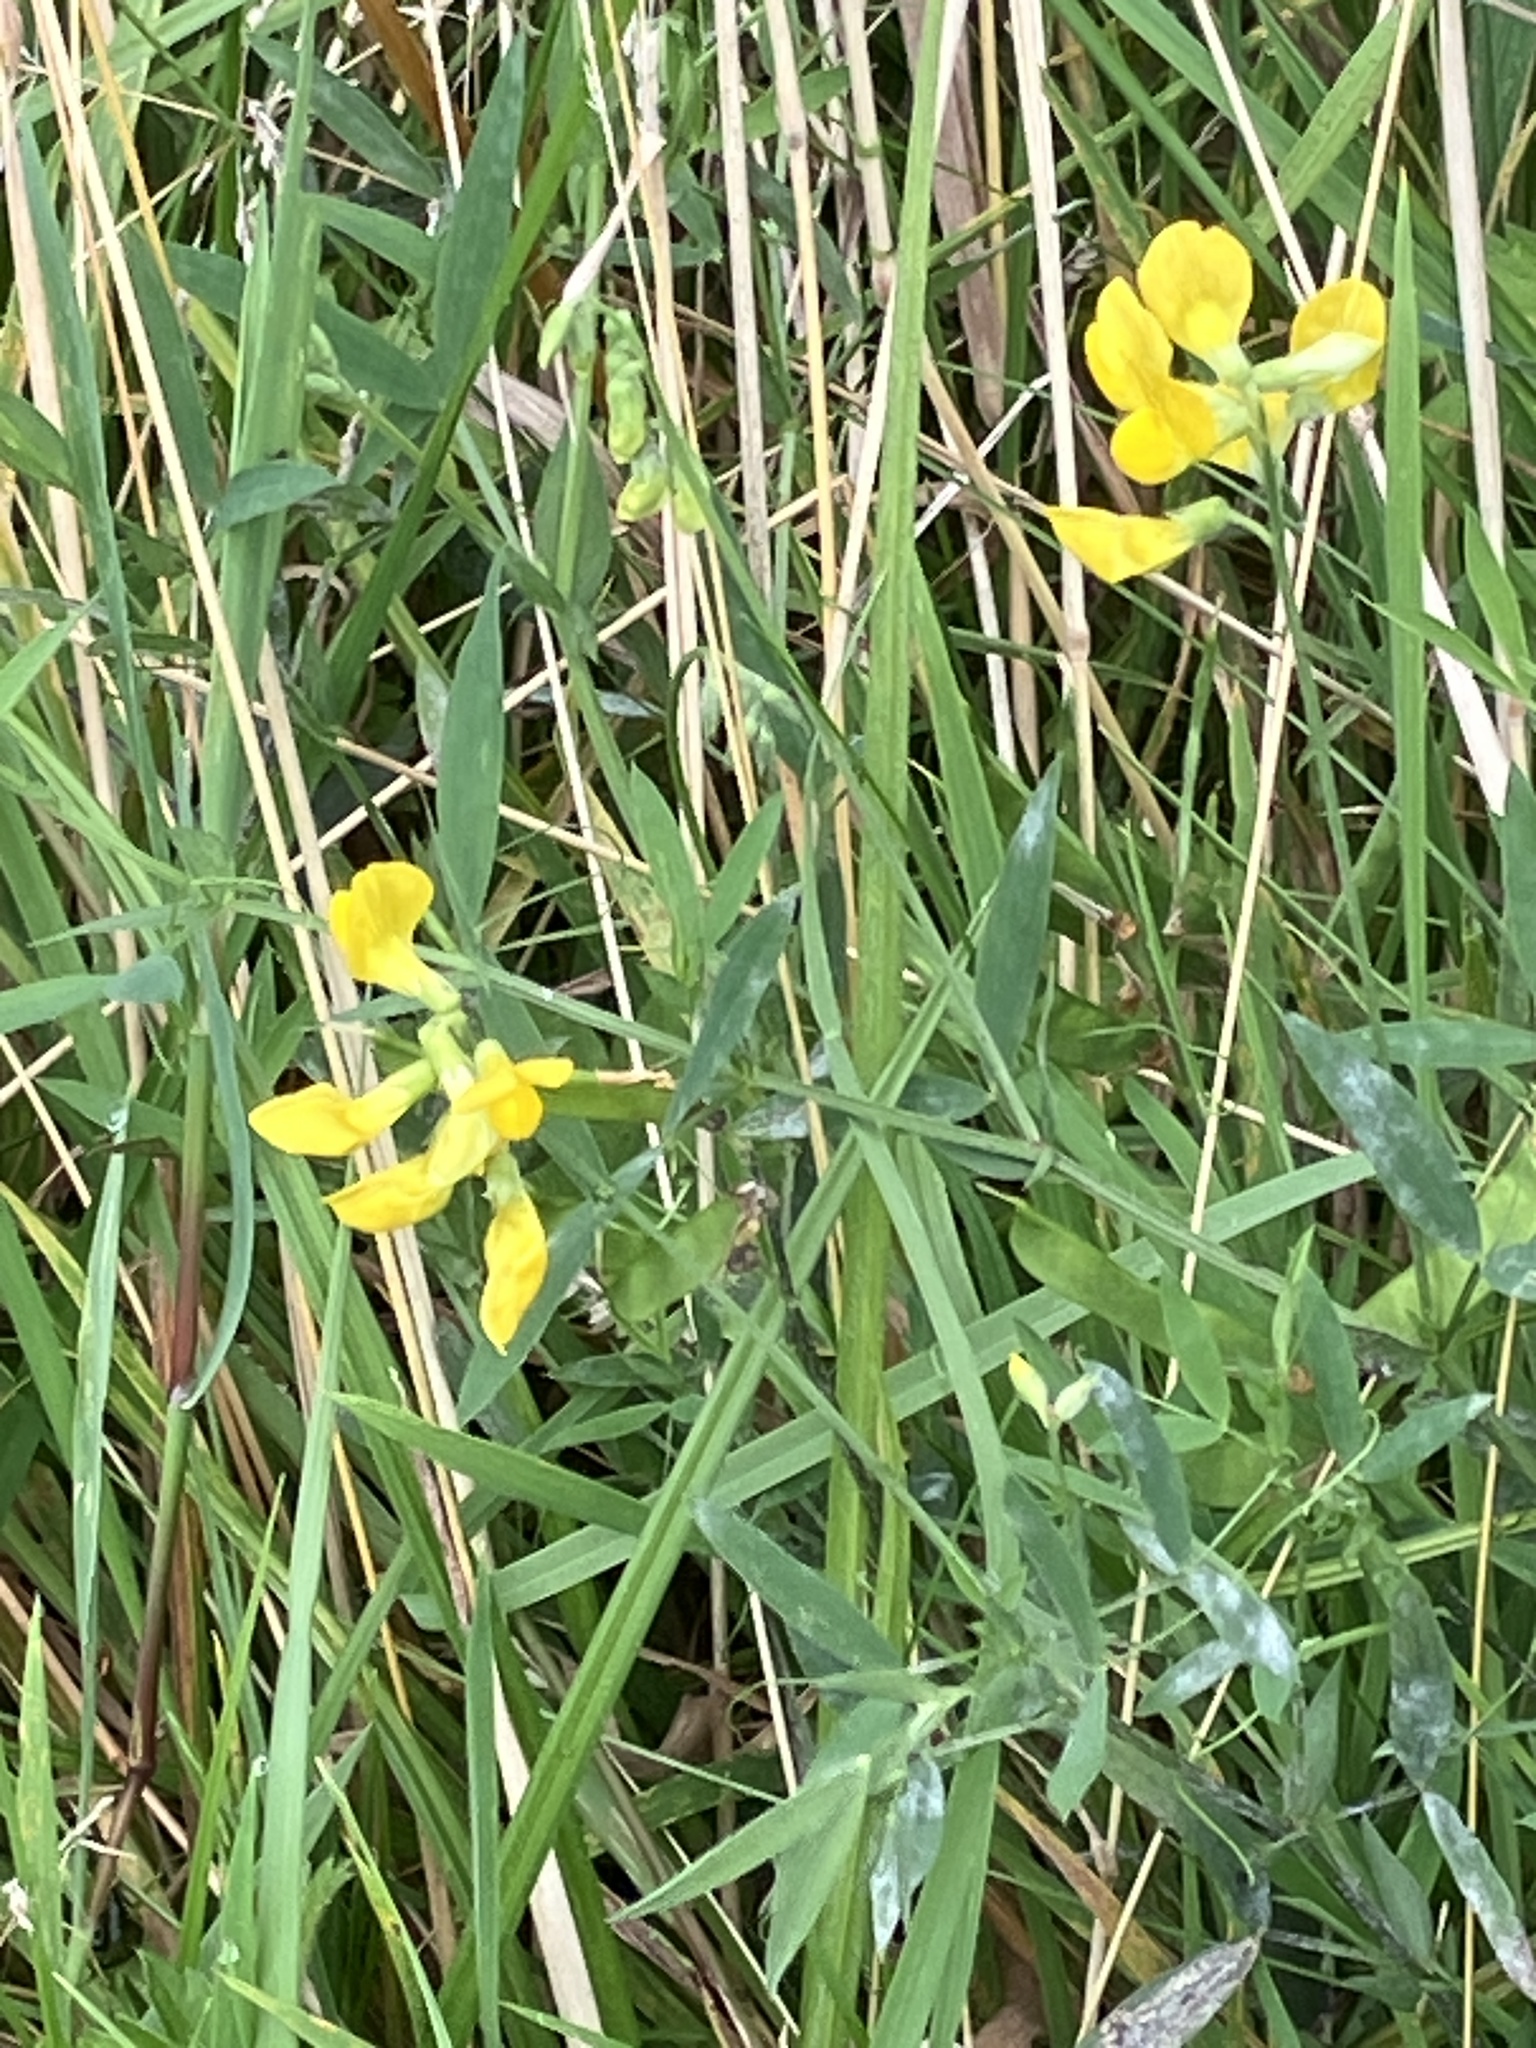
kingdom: Plantae
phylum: Tracheophyta
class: Magnoliopsida
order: Fabales
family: Fabaceae
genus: Lathyrus
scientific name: Lathyrus pratensis
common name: Meadow vetchling
